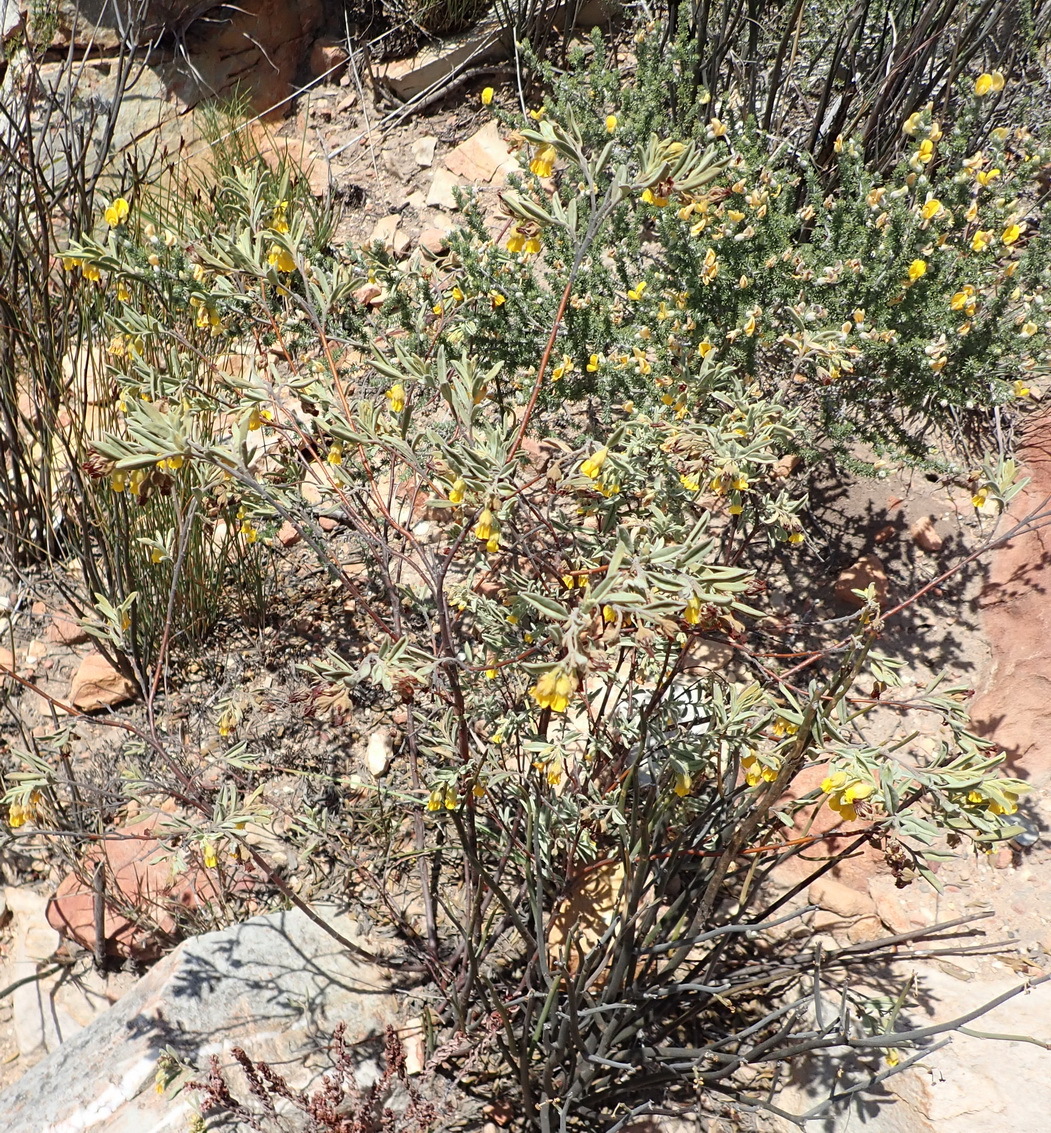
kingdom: Plantae
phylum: Tracheophyta
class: Magnoliopsida
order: Malvales
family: Malvaceae
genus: Hermannia
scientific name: Hermannia velutina
